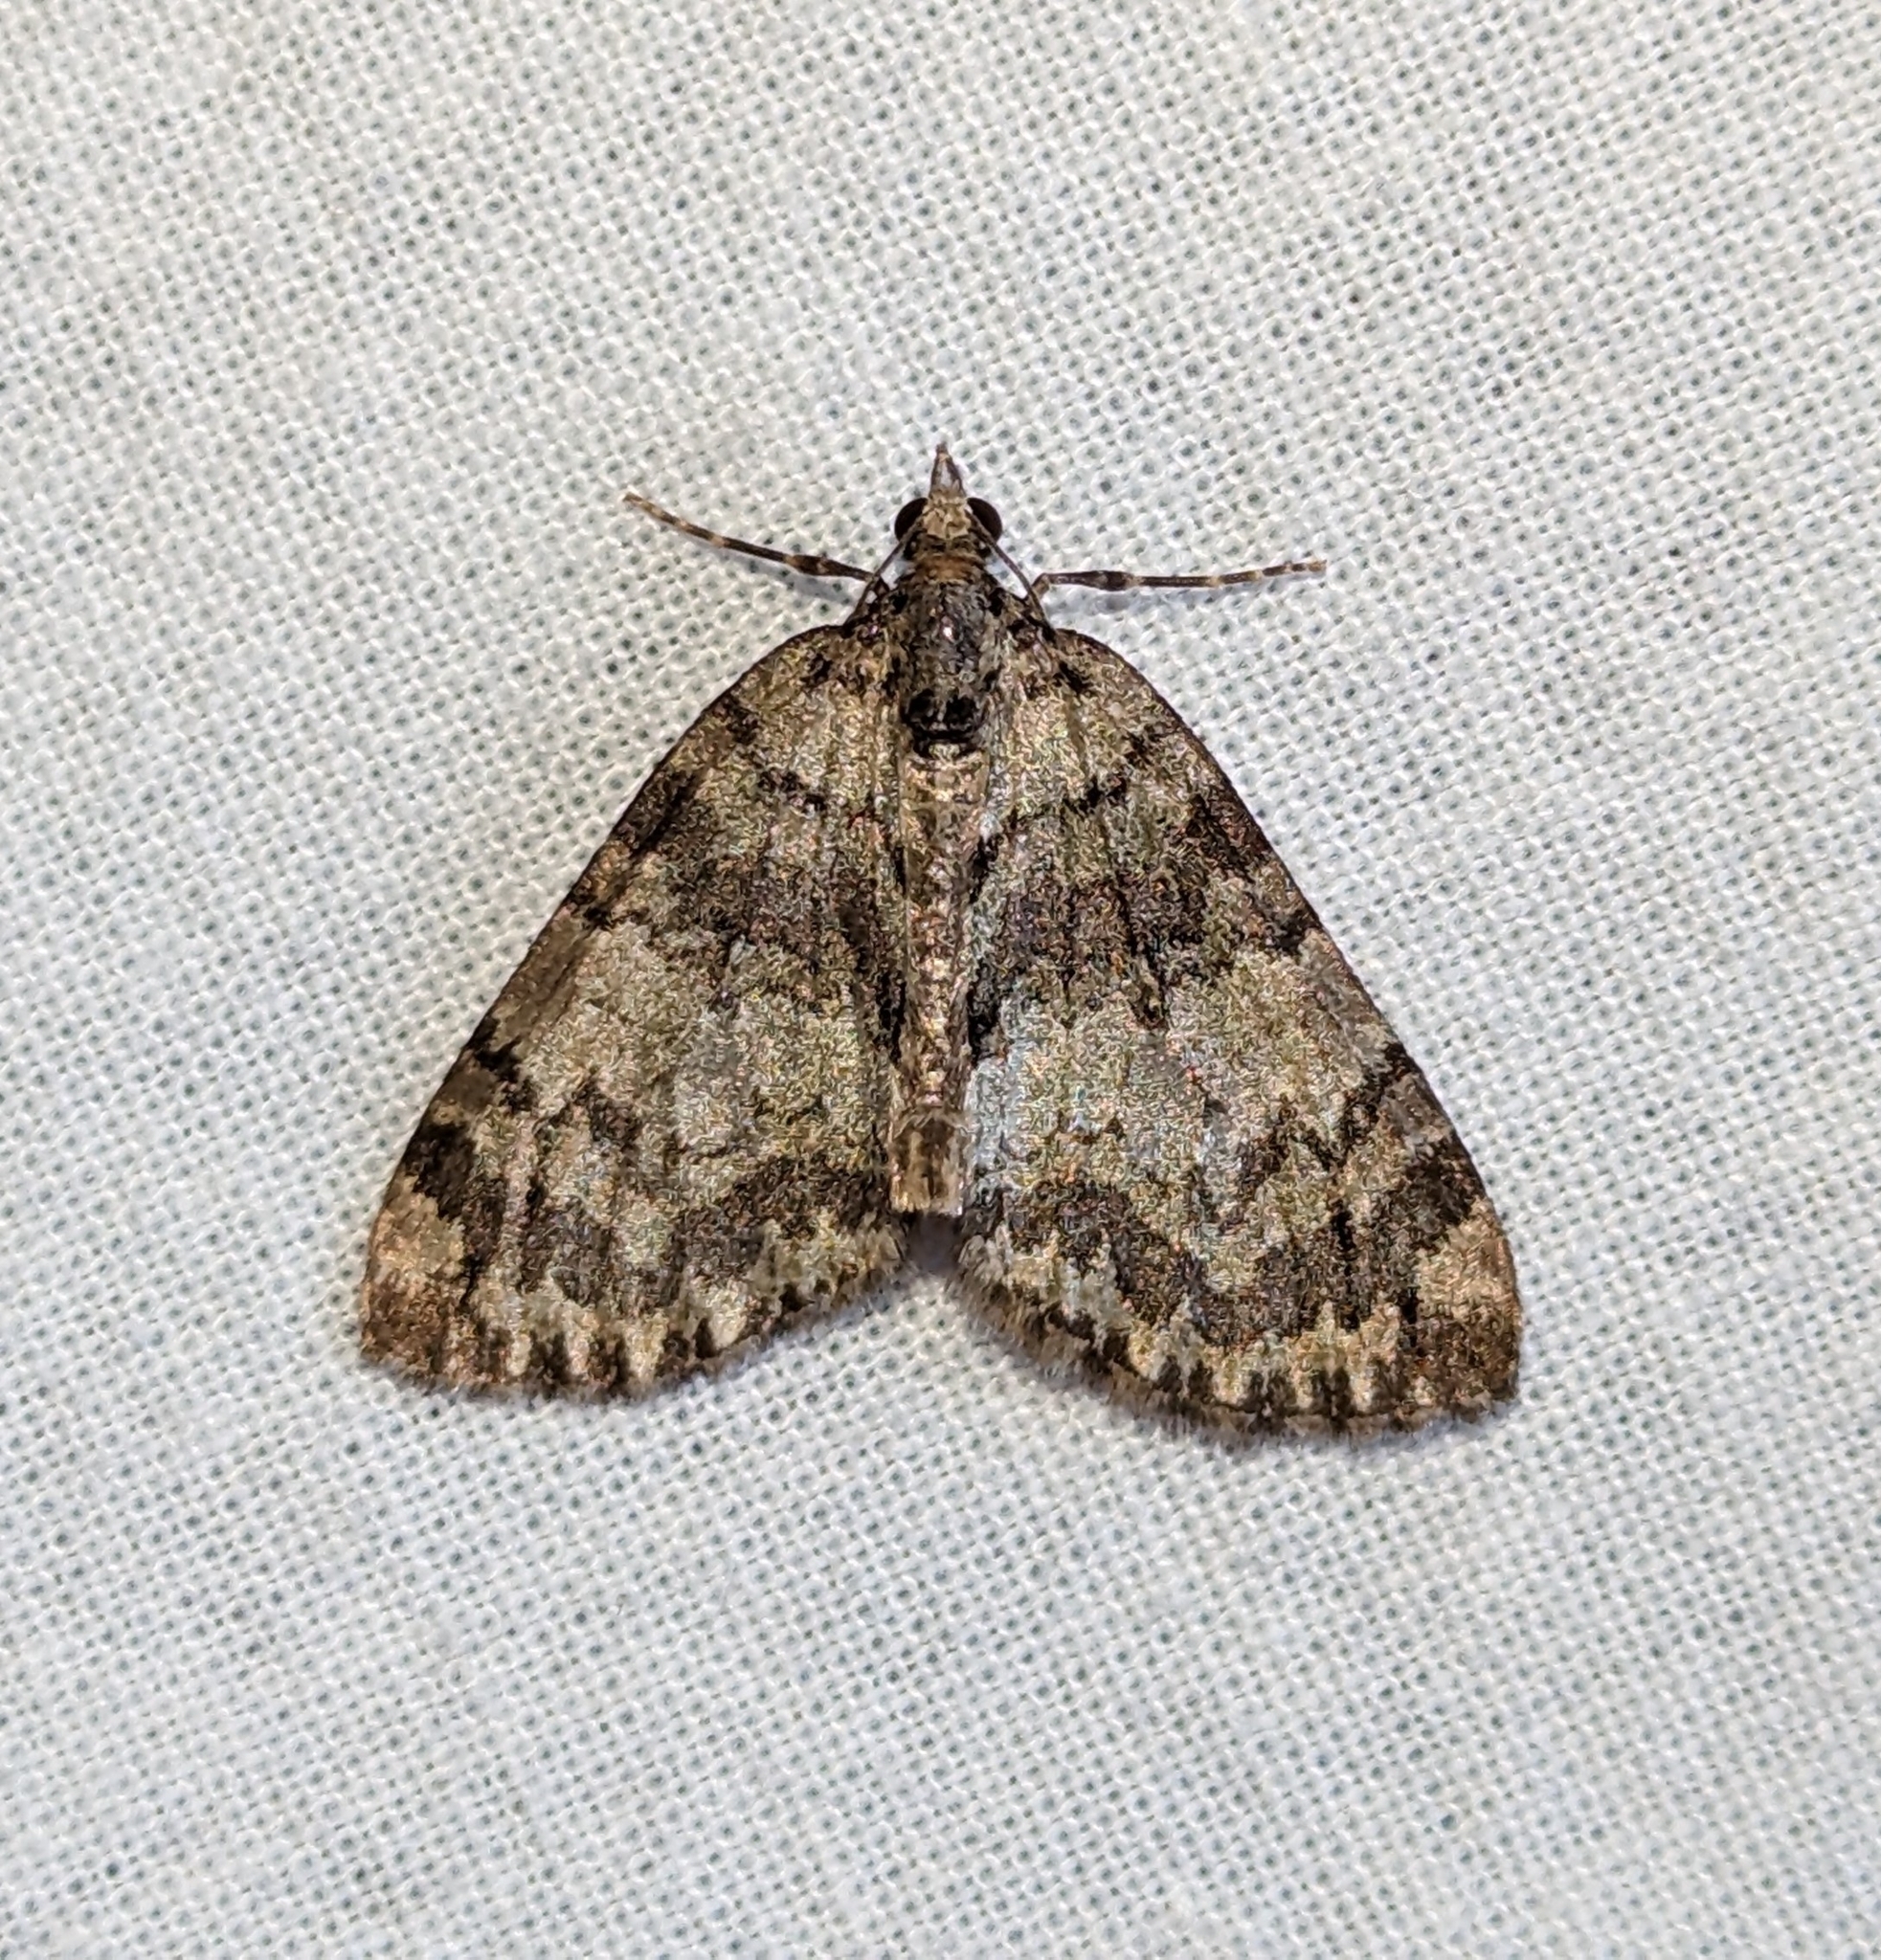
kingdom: Animalia
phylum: Arthropoda
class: Insecta
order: Lepidoptera
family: Geometridae
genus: Hydriomena
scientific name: Hydriomena
